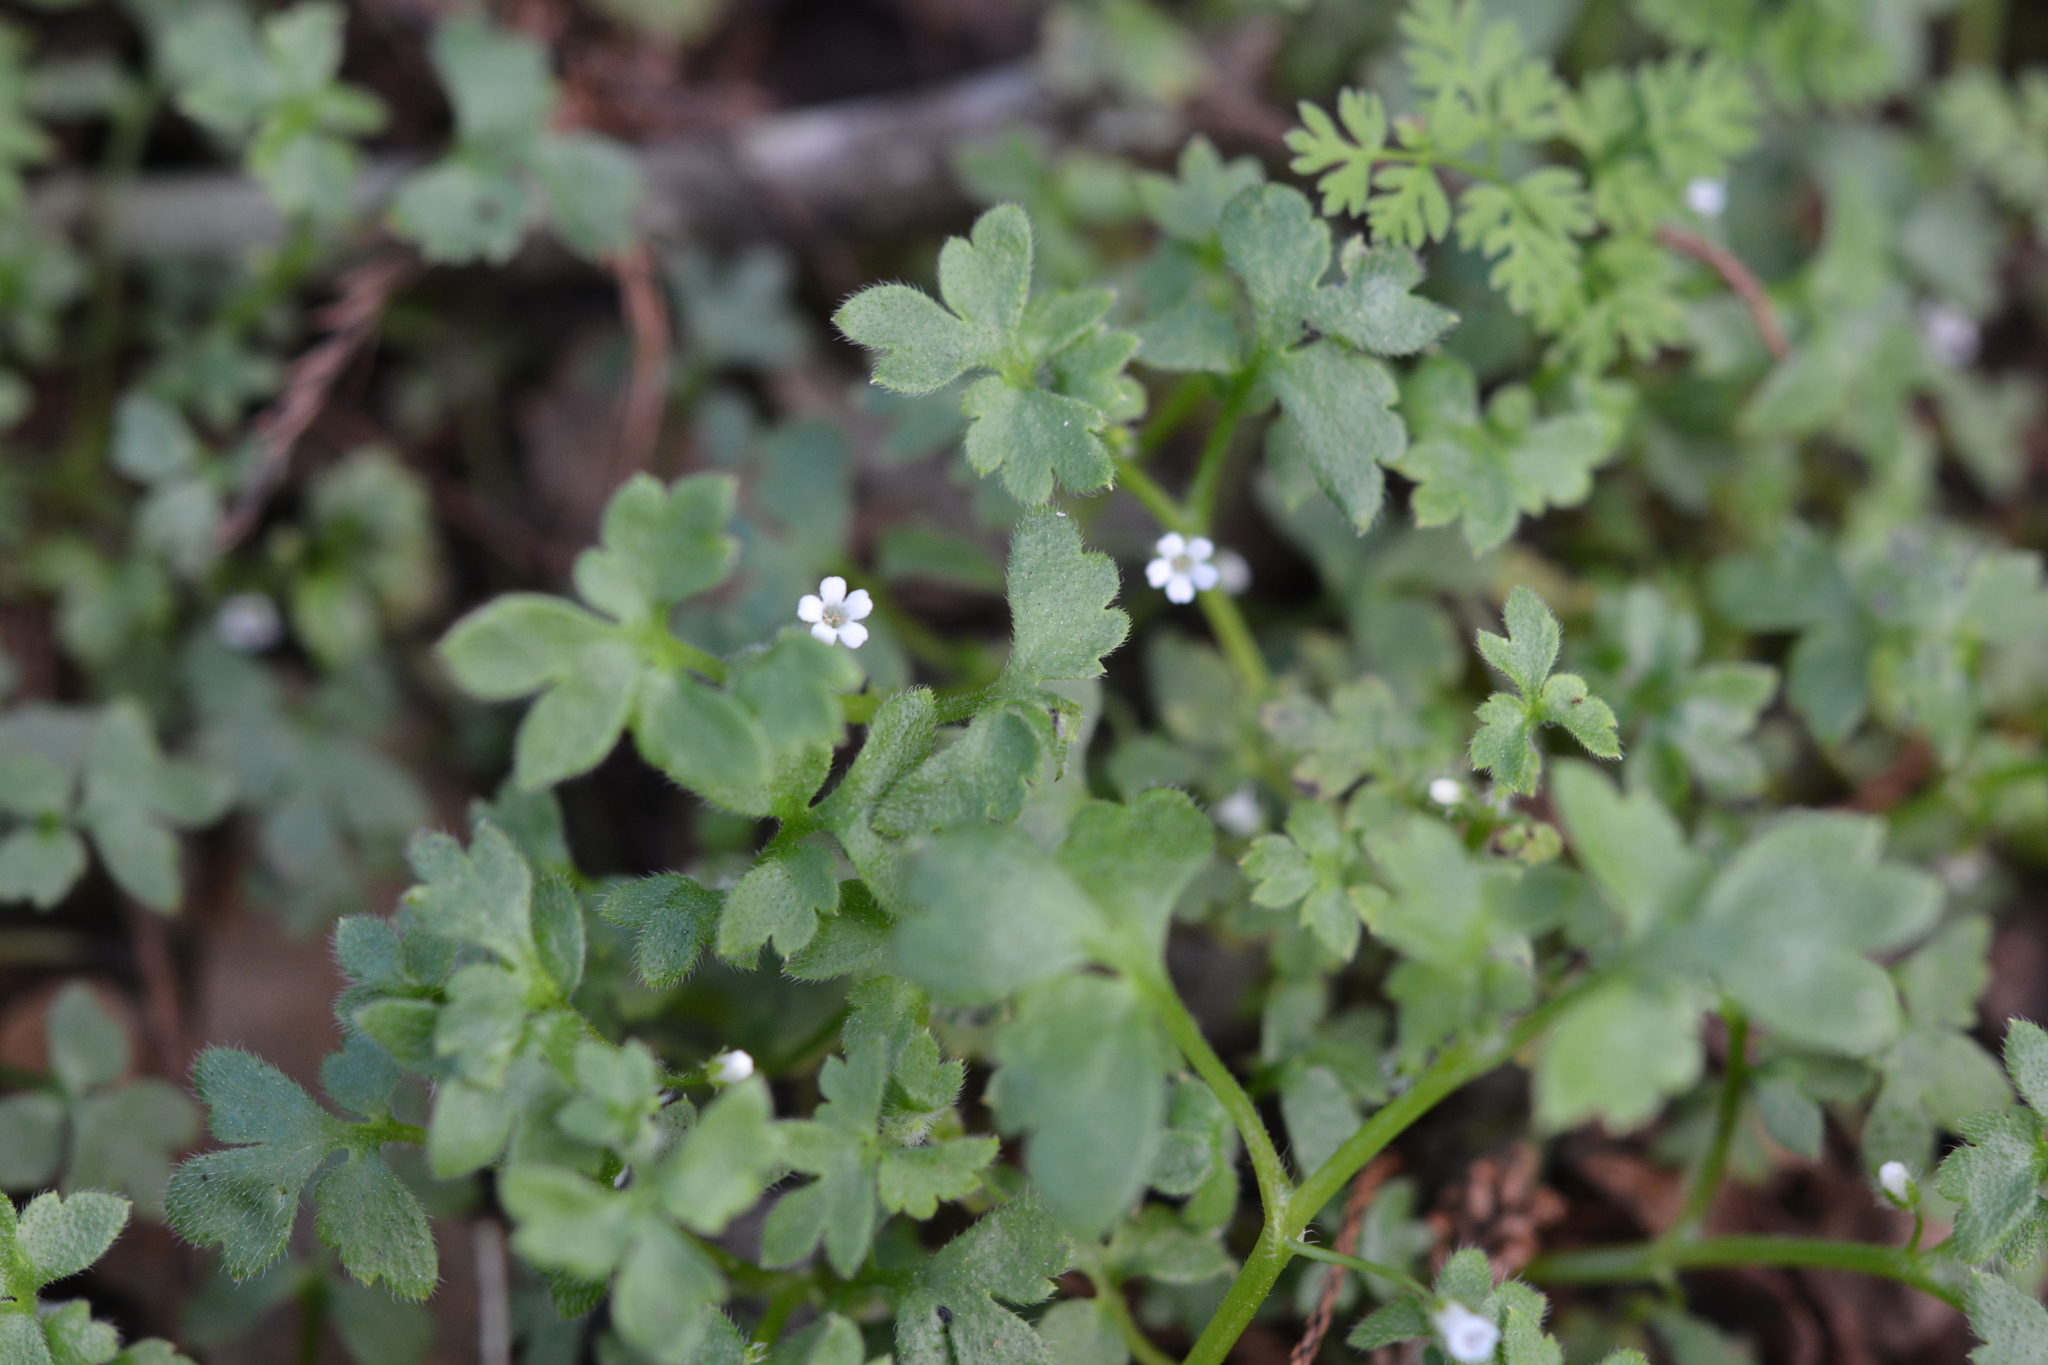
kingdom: Plantae
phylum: Tracheophyta
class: Magnoliopsida
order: Boraginales
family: Hydrophyllaceae
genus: Nemophila
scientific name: Nemophila aphylla
